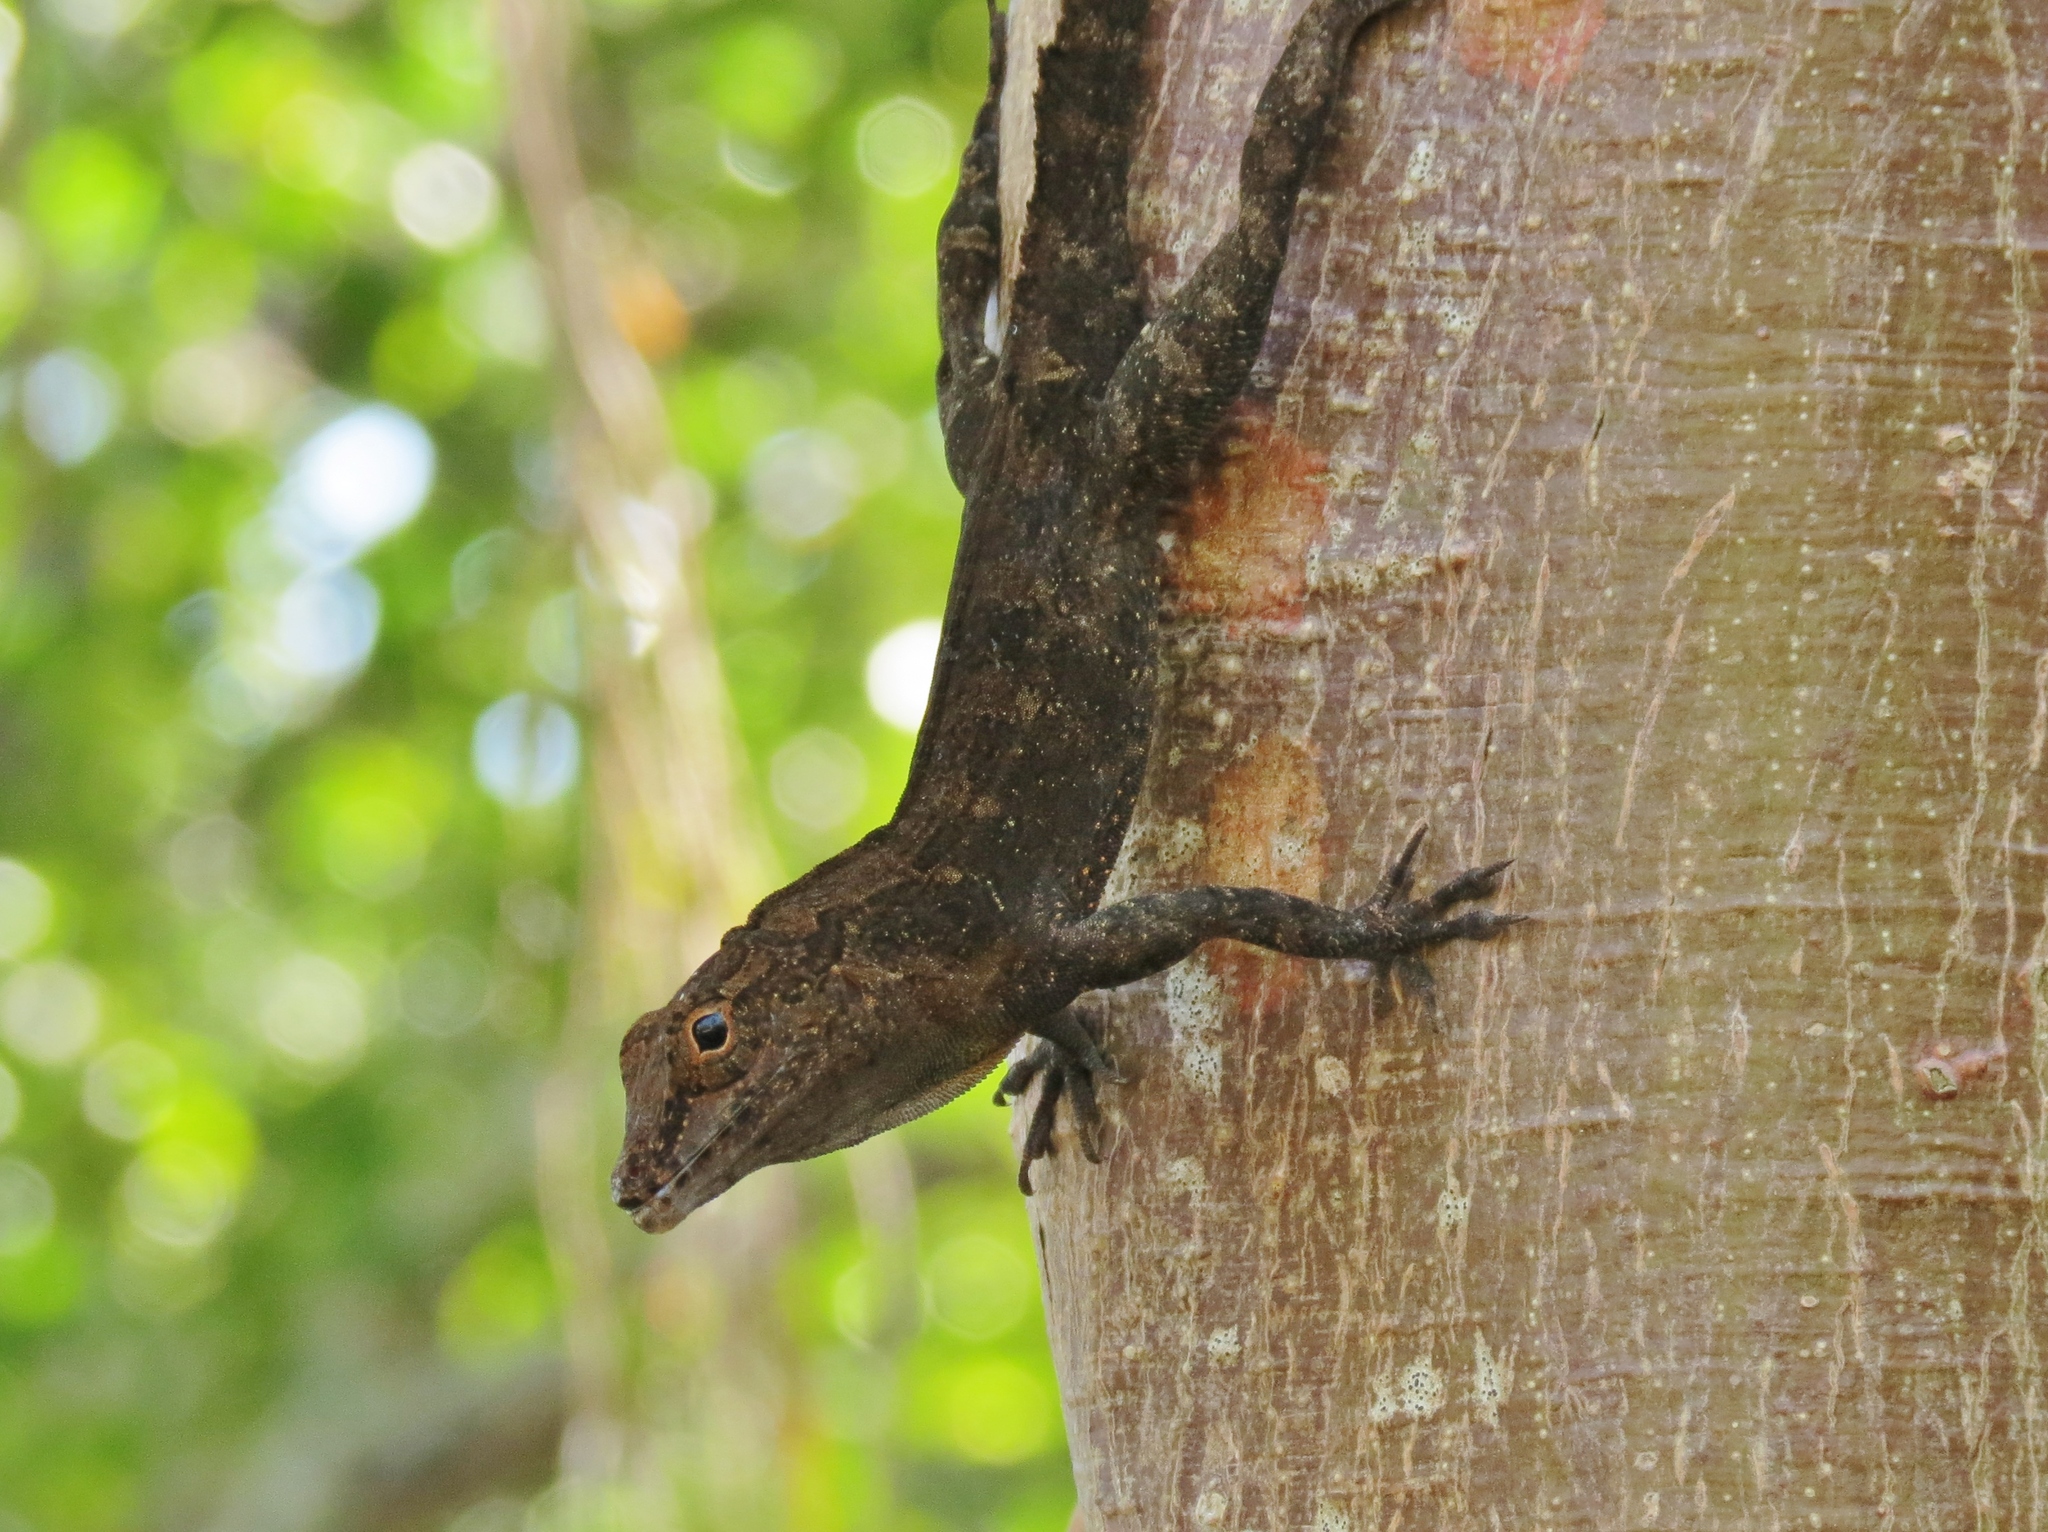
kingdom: Animalia
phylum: Chordata
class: Squamata
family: Dactyloidae
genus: Anolis
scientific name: Anolis cristatellus
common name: Crested anole
